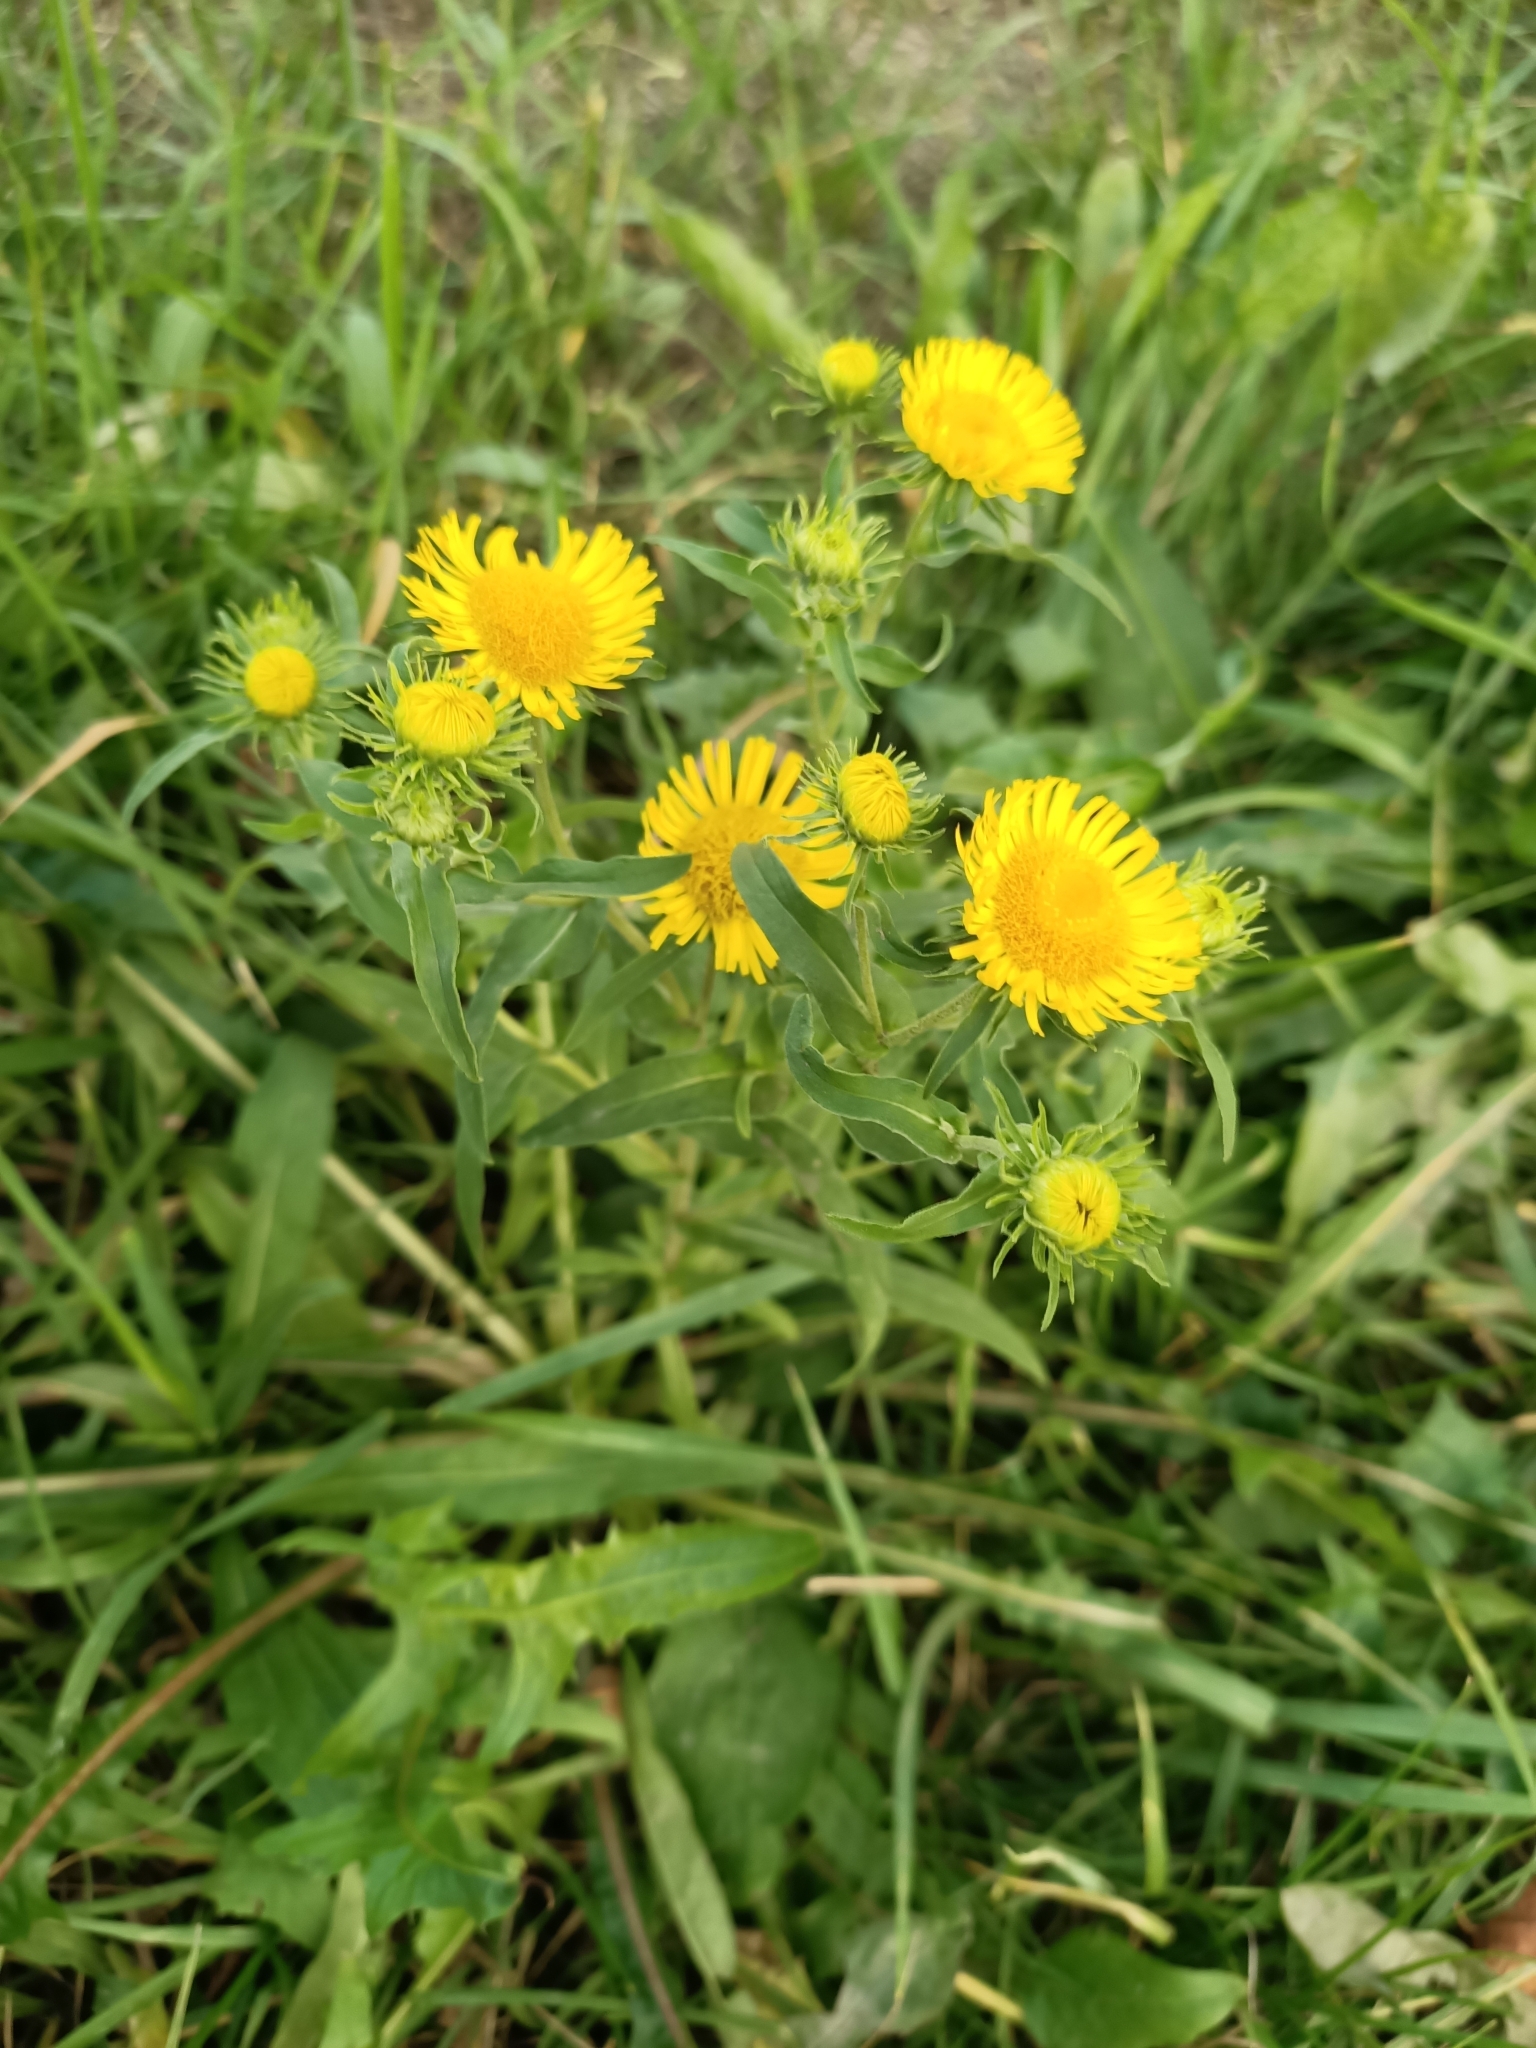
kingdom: Plantae
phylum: Tracheophyta
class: Magnoliopsida
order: Asterales
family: Asteraceae
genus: Pentanema
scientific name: Pentanema britannicum
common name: British elecampane
